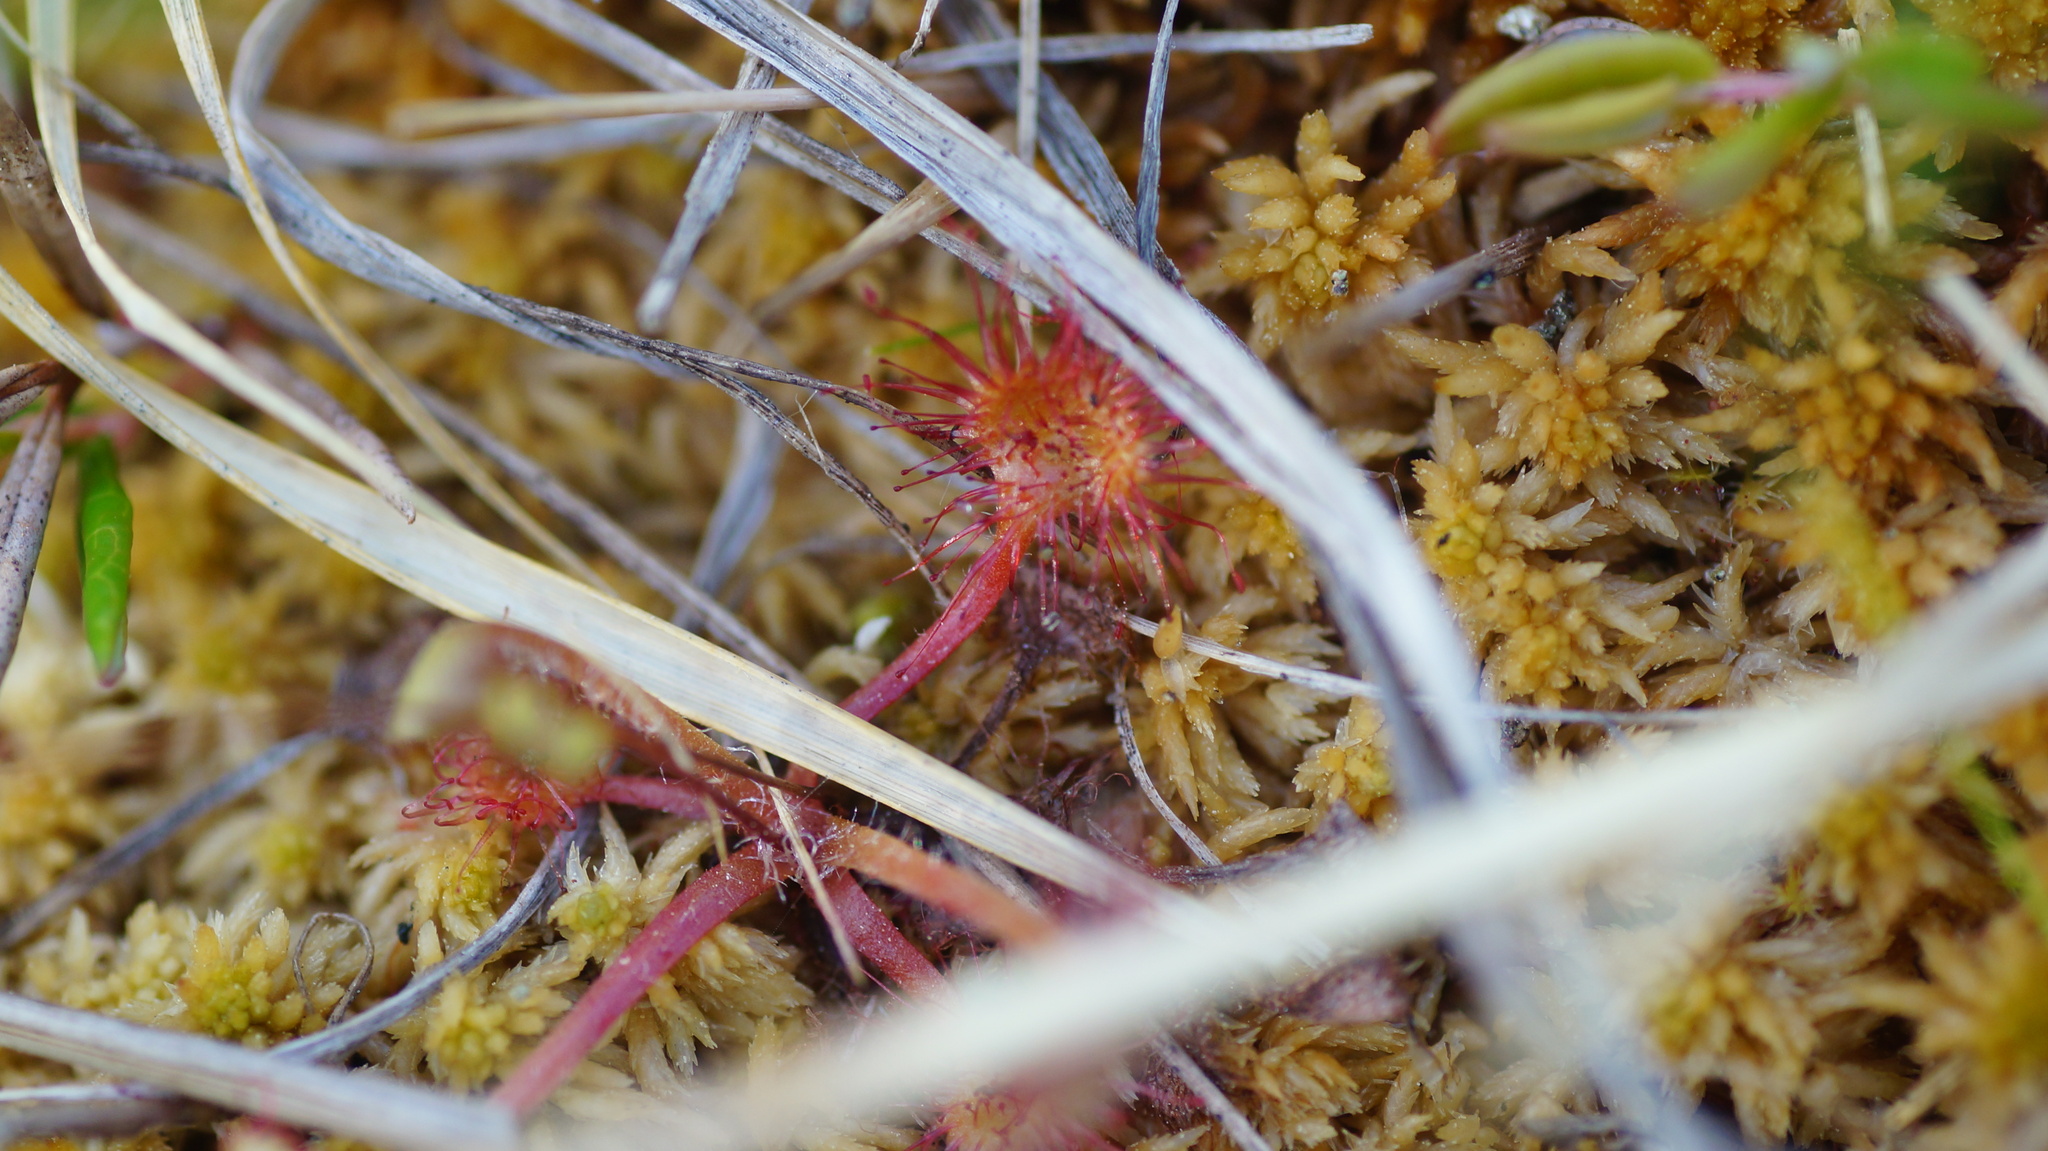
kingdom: Plantae
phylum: Tracheophyta
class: Magnoliopsida
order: Caryophyllales
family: Droseraceae
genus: Drosera
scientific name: Drosera rotundifolia
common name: Round-leaved sundew
